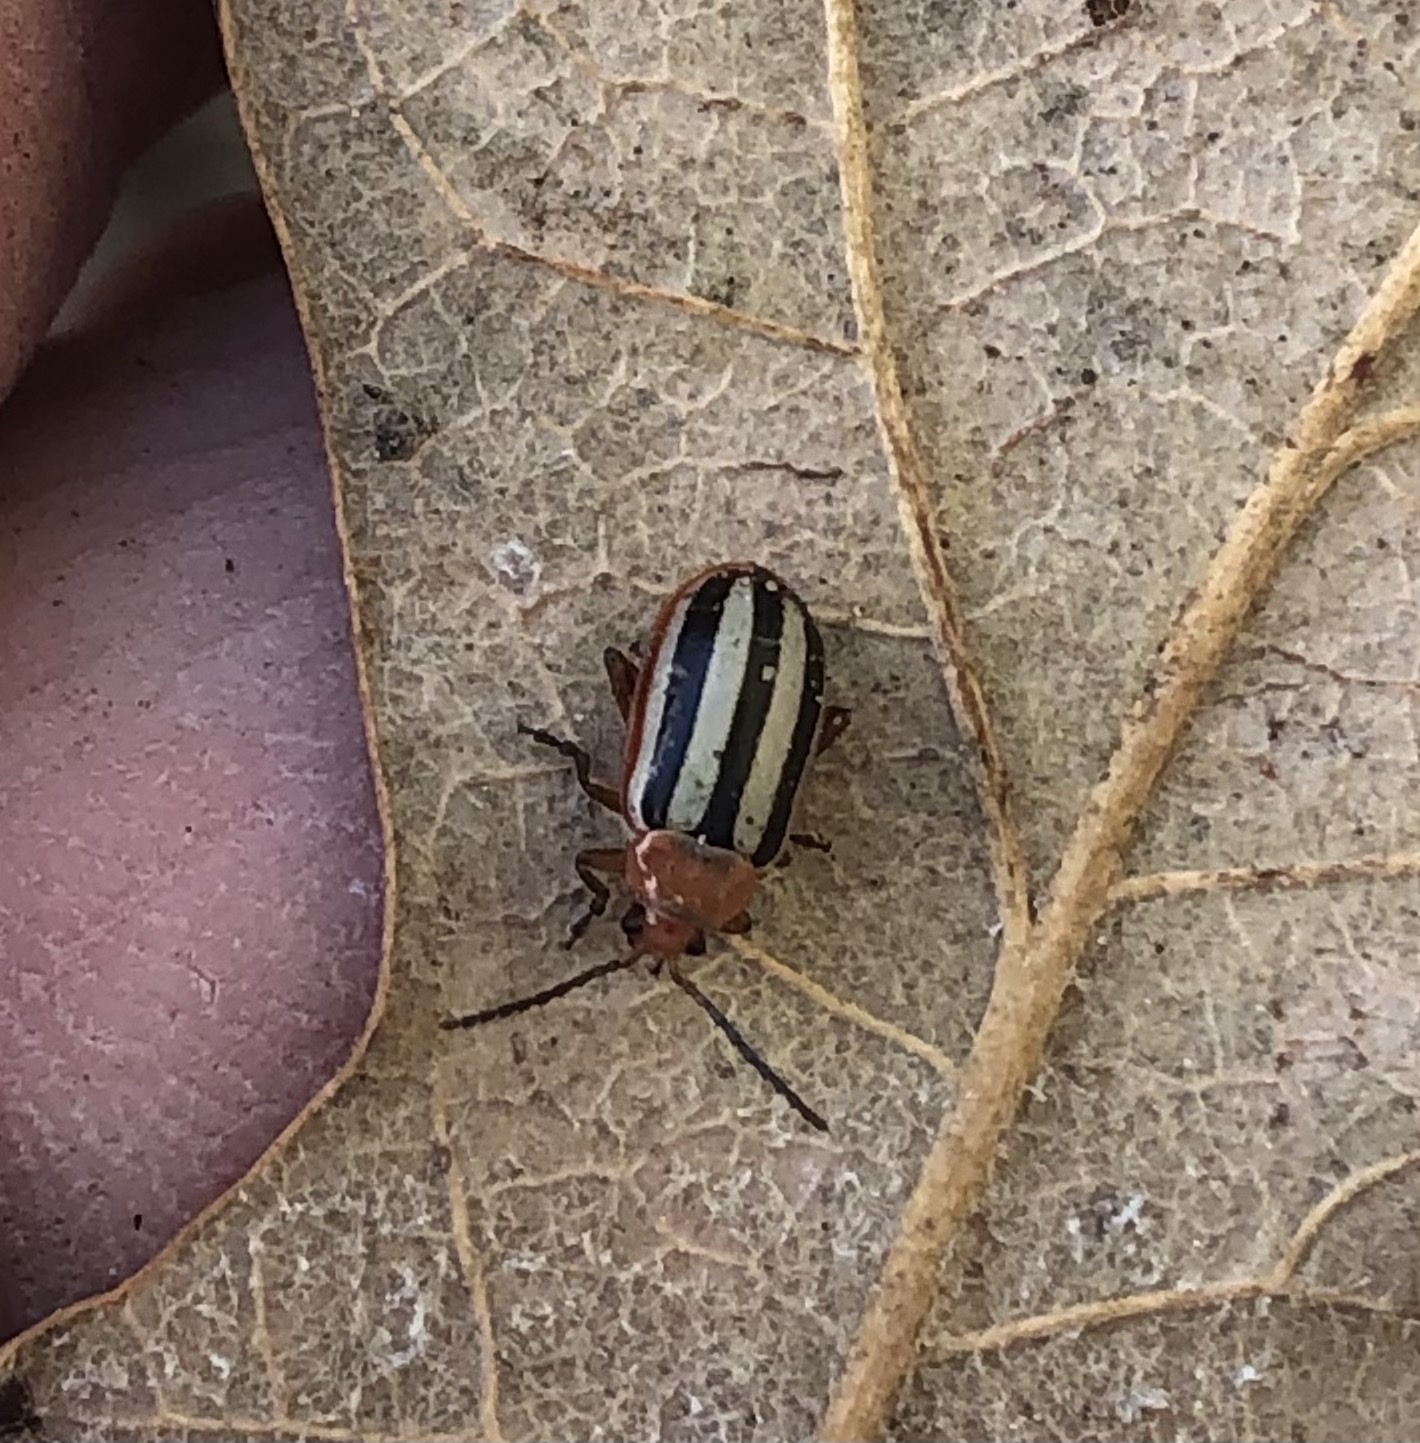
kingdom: Animalia
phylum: Arthropoda
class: Insecta
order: Coleoptera
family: Chrysomelidae
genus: Disonycha
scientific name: Disonycha leptolineata
